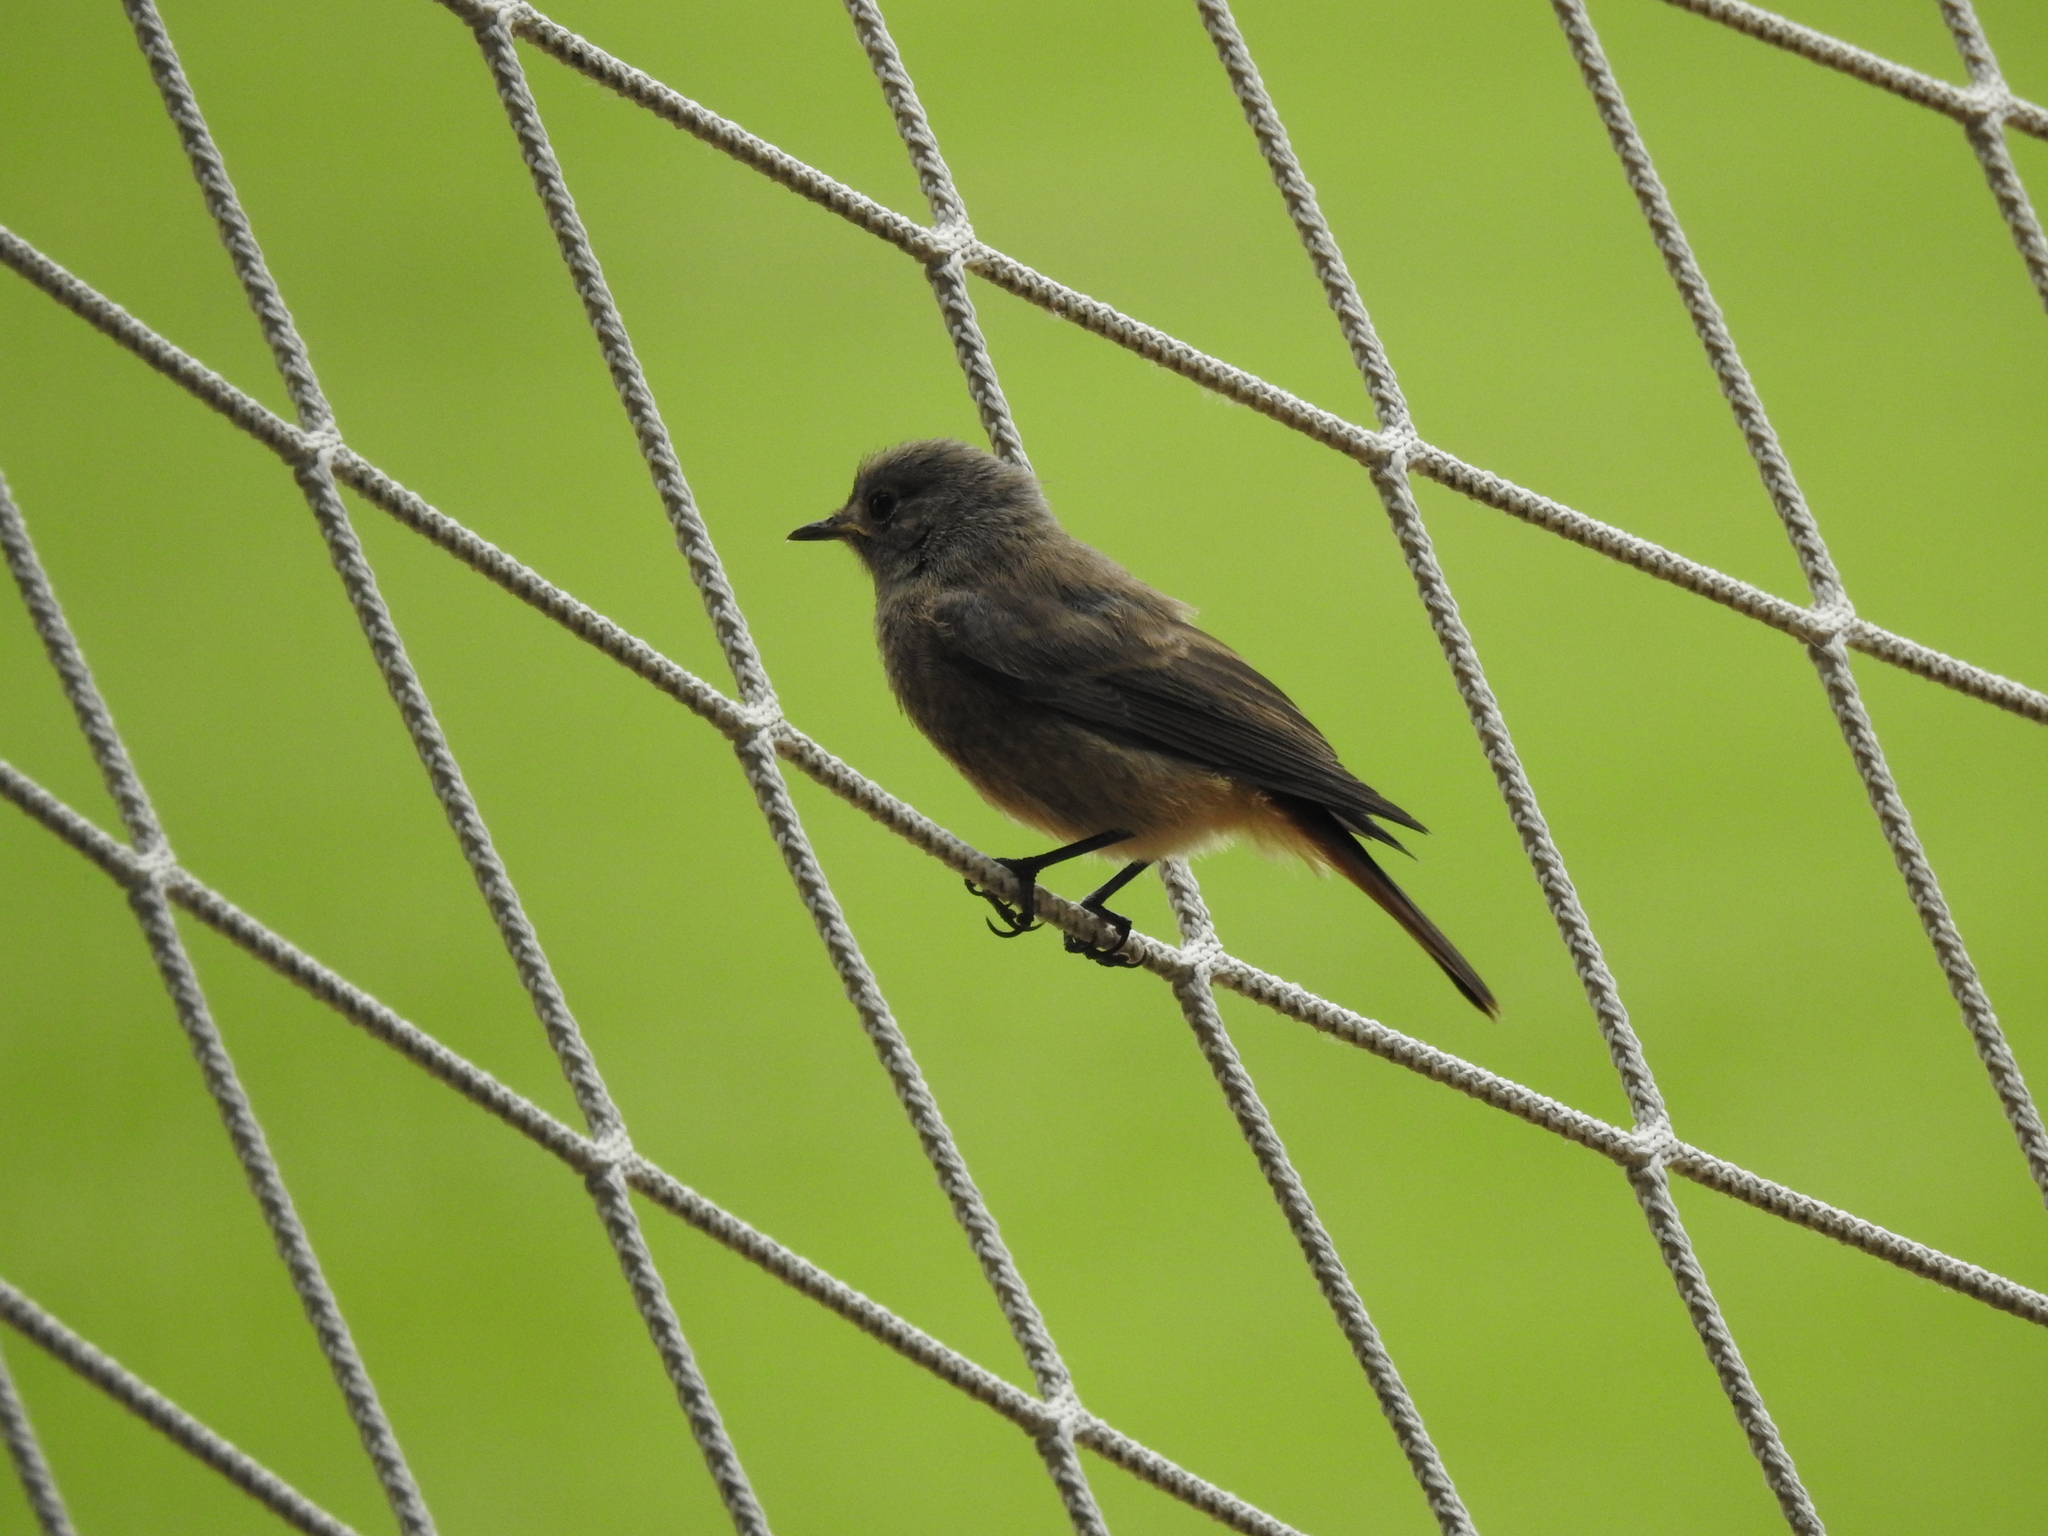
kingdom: Animalia
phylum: Chordata
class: Aves
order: Passeriformes
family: Muscicapidae
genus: Phoenicurus
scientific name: Phoenicurus ochruros
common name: Black redstart
